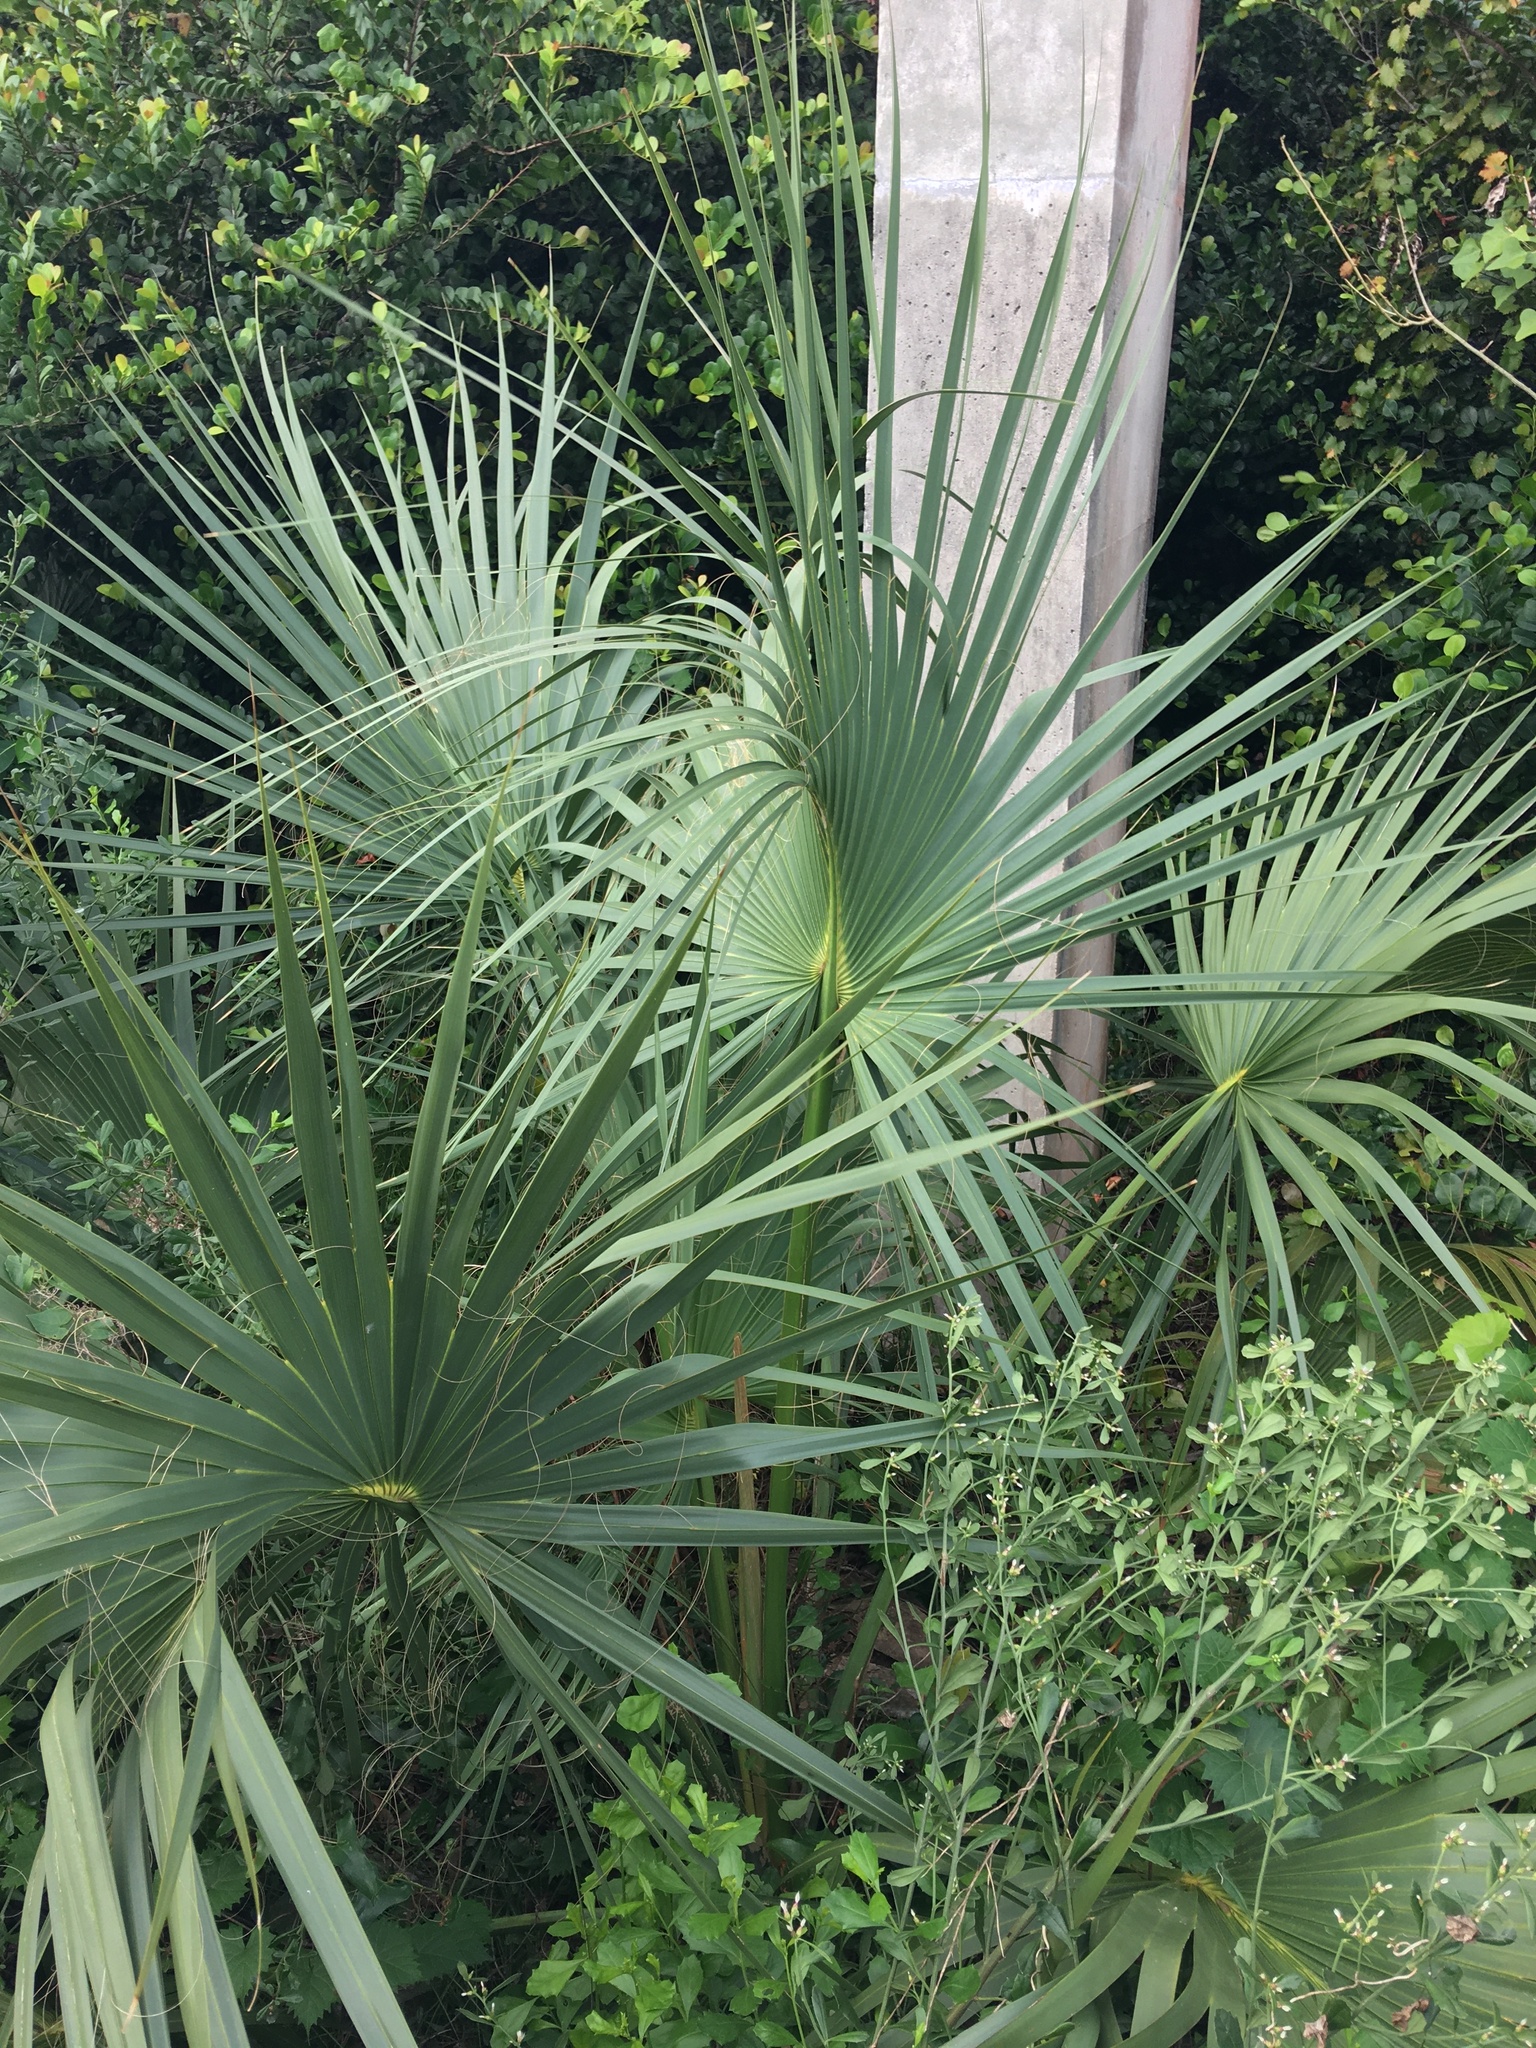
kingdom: Plantae
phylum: Tracheophyta
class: Liliopsida
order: Arecales
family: Arecaceae
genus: Sabal
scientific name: Sabal palmetto
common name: Blue palmetto
